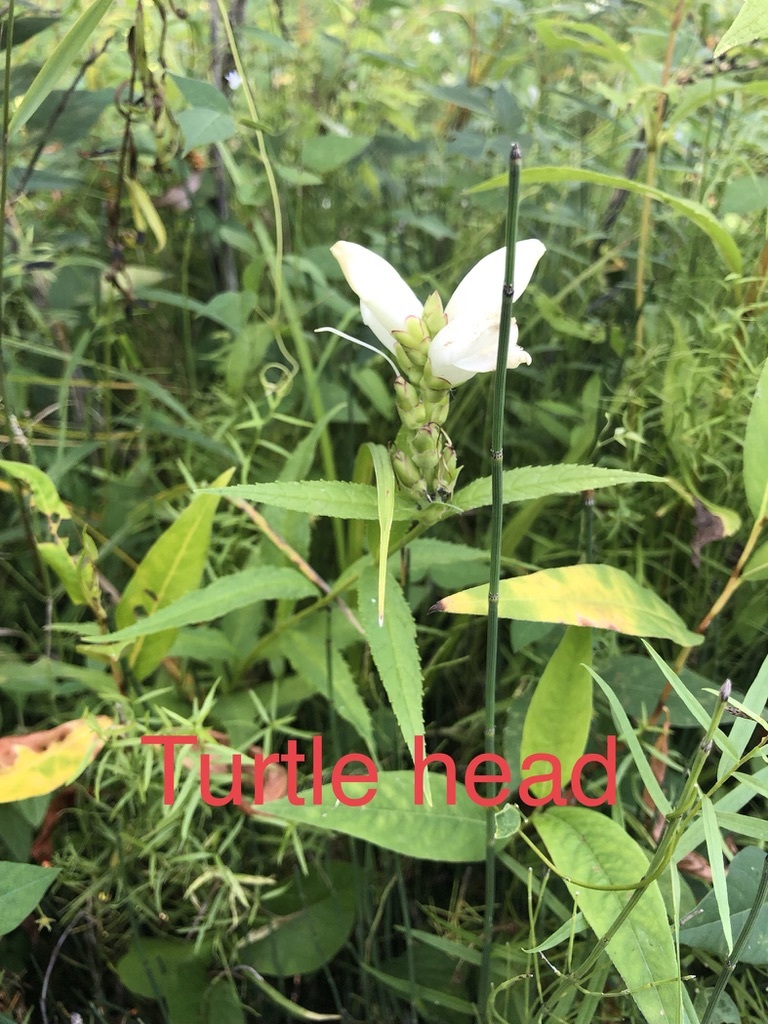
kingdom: Plantae
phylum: Tracheophyta
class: Magnoliopsida
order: Lamiales
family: Plantaginaceae
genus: Chelone
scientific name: Chelone glabra
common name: Snakehead
